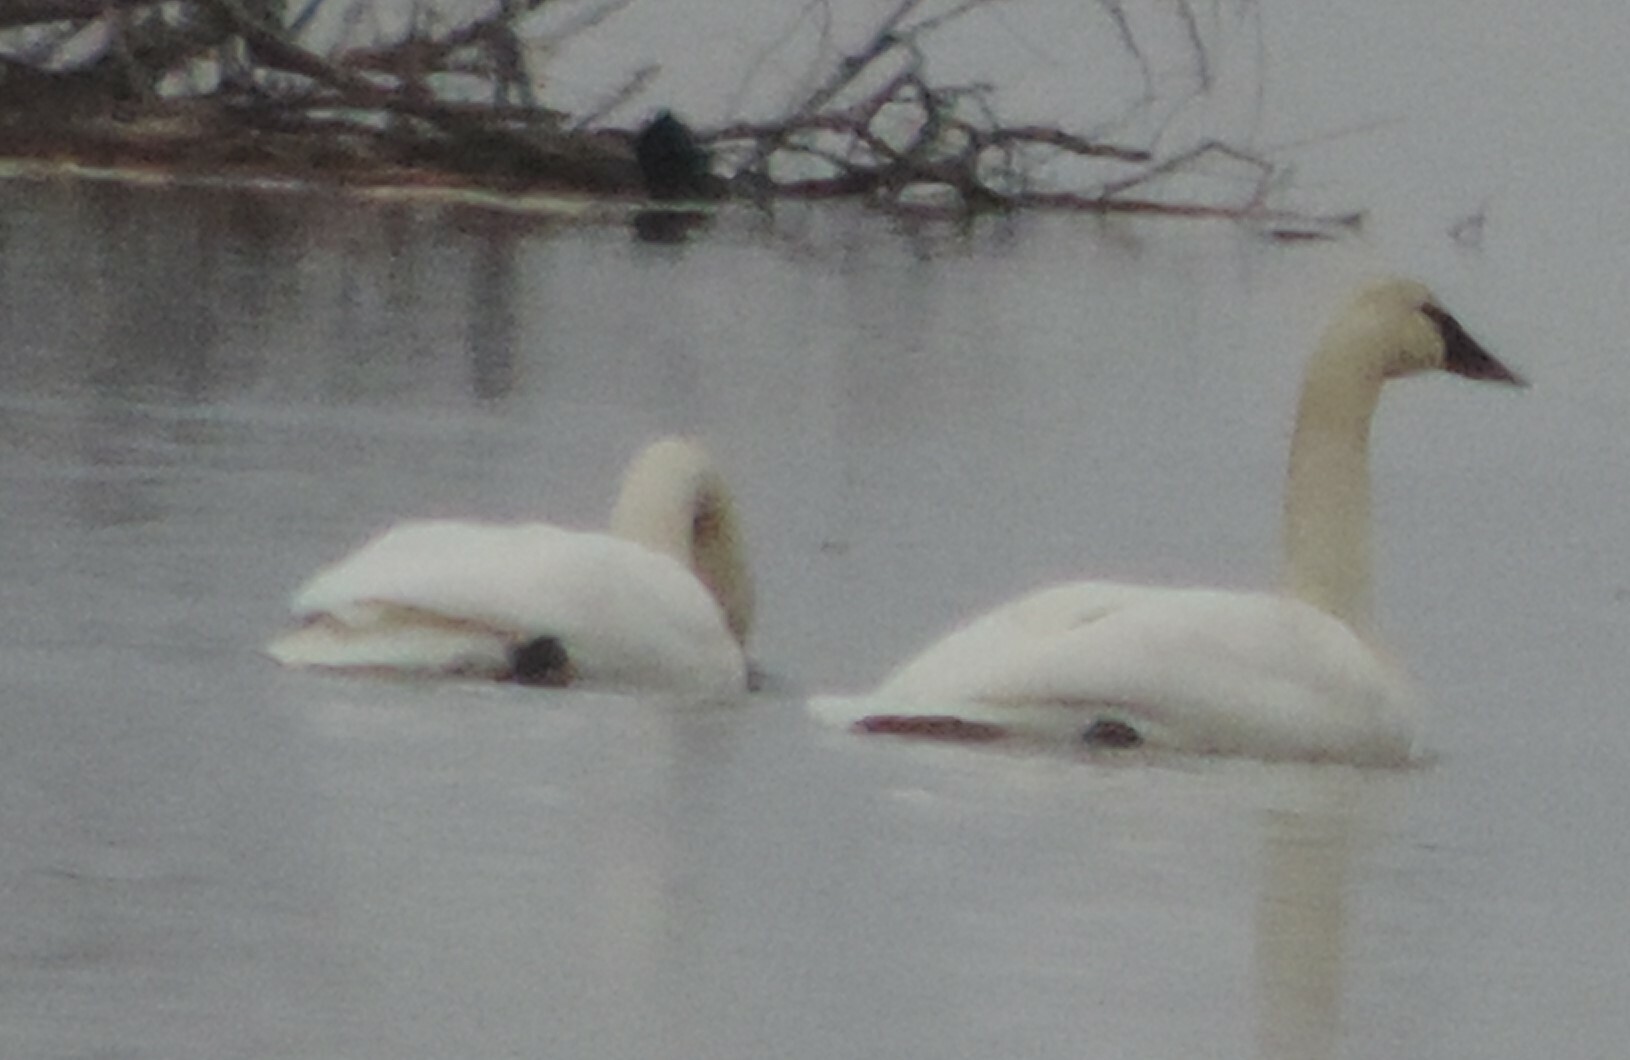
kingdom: Animalia
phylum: Chordata
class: Aves
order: Anseriformes
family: Anatidae
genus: Cygnus
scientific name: Cygnus buccinator
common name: Trumpeter swan
